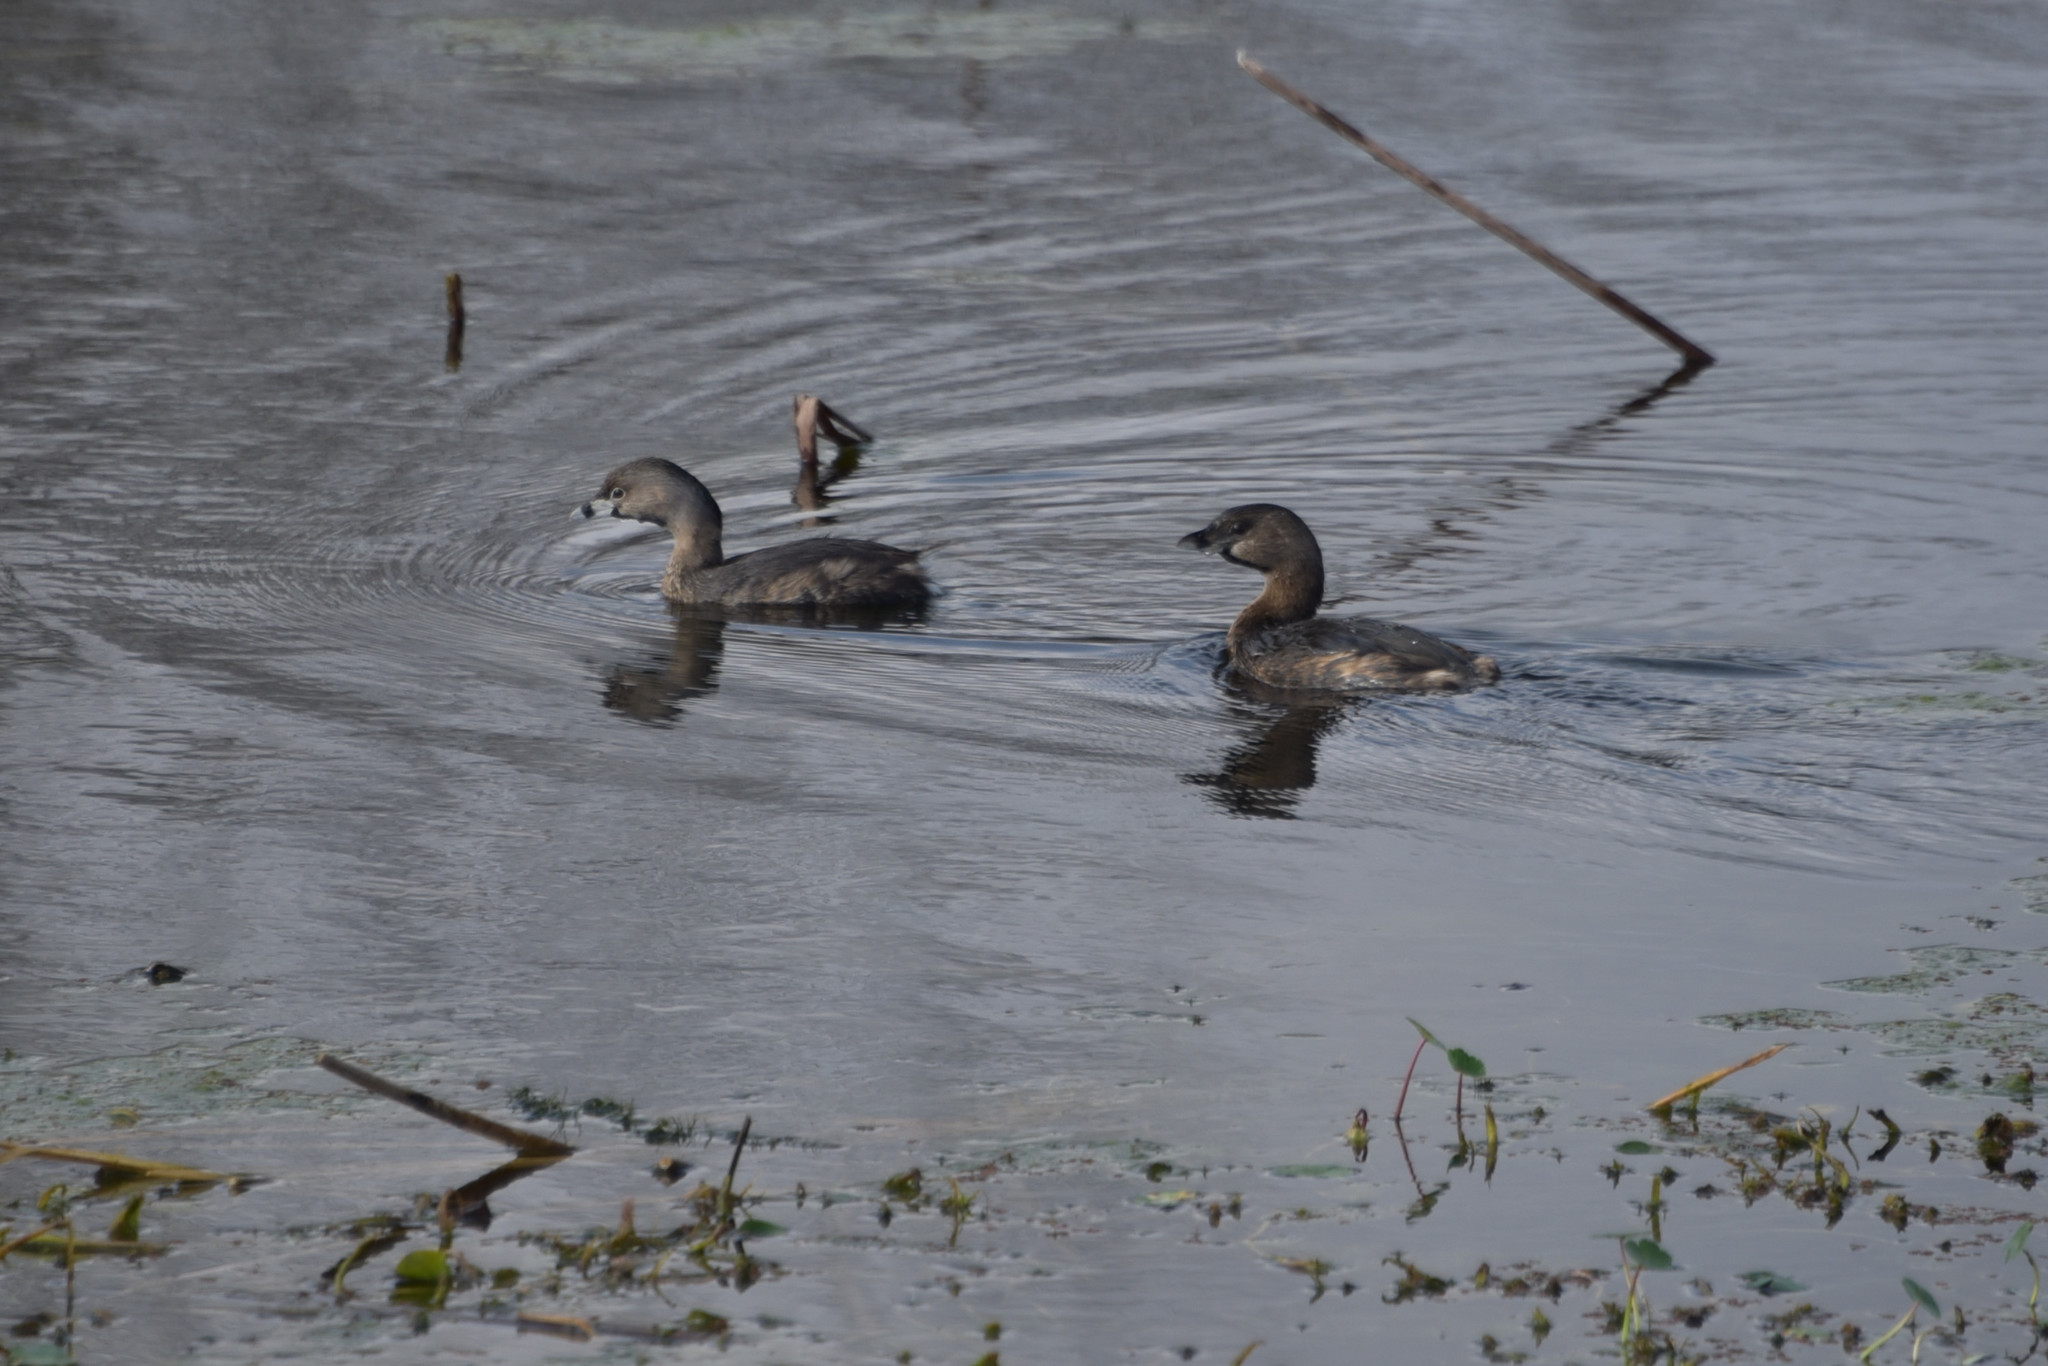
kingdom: Animalia
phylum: Chordata
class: Aves
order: Podicipediformes
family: Podicipedidae
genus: Podilymbus
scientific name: Podilymbus podiceps
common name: Pied-billed grebe
